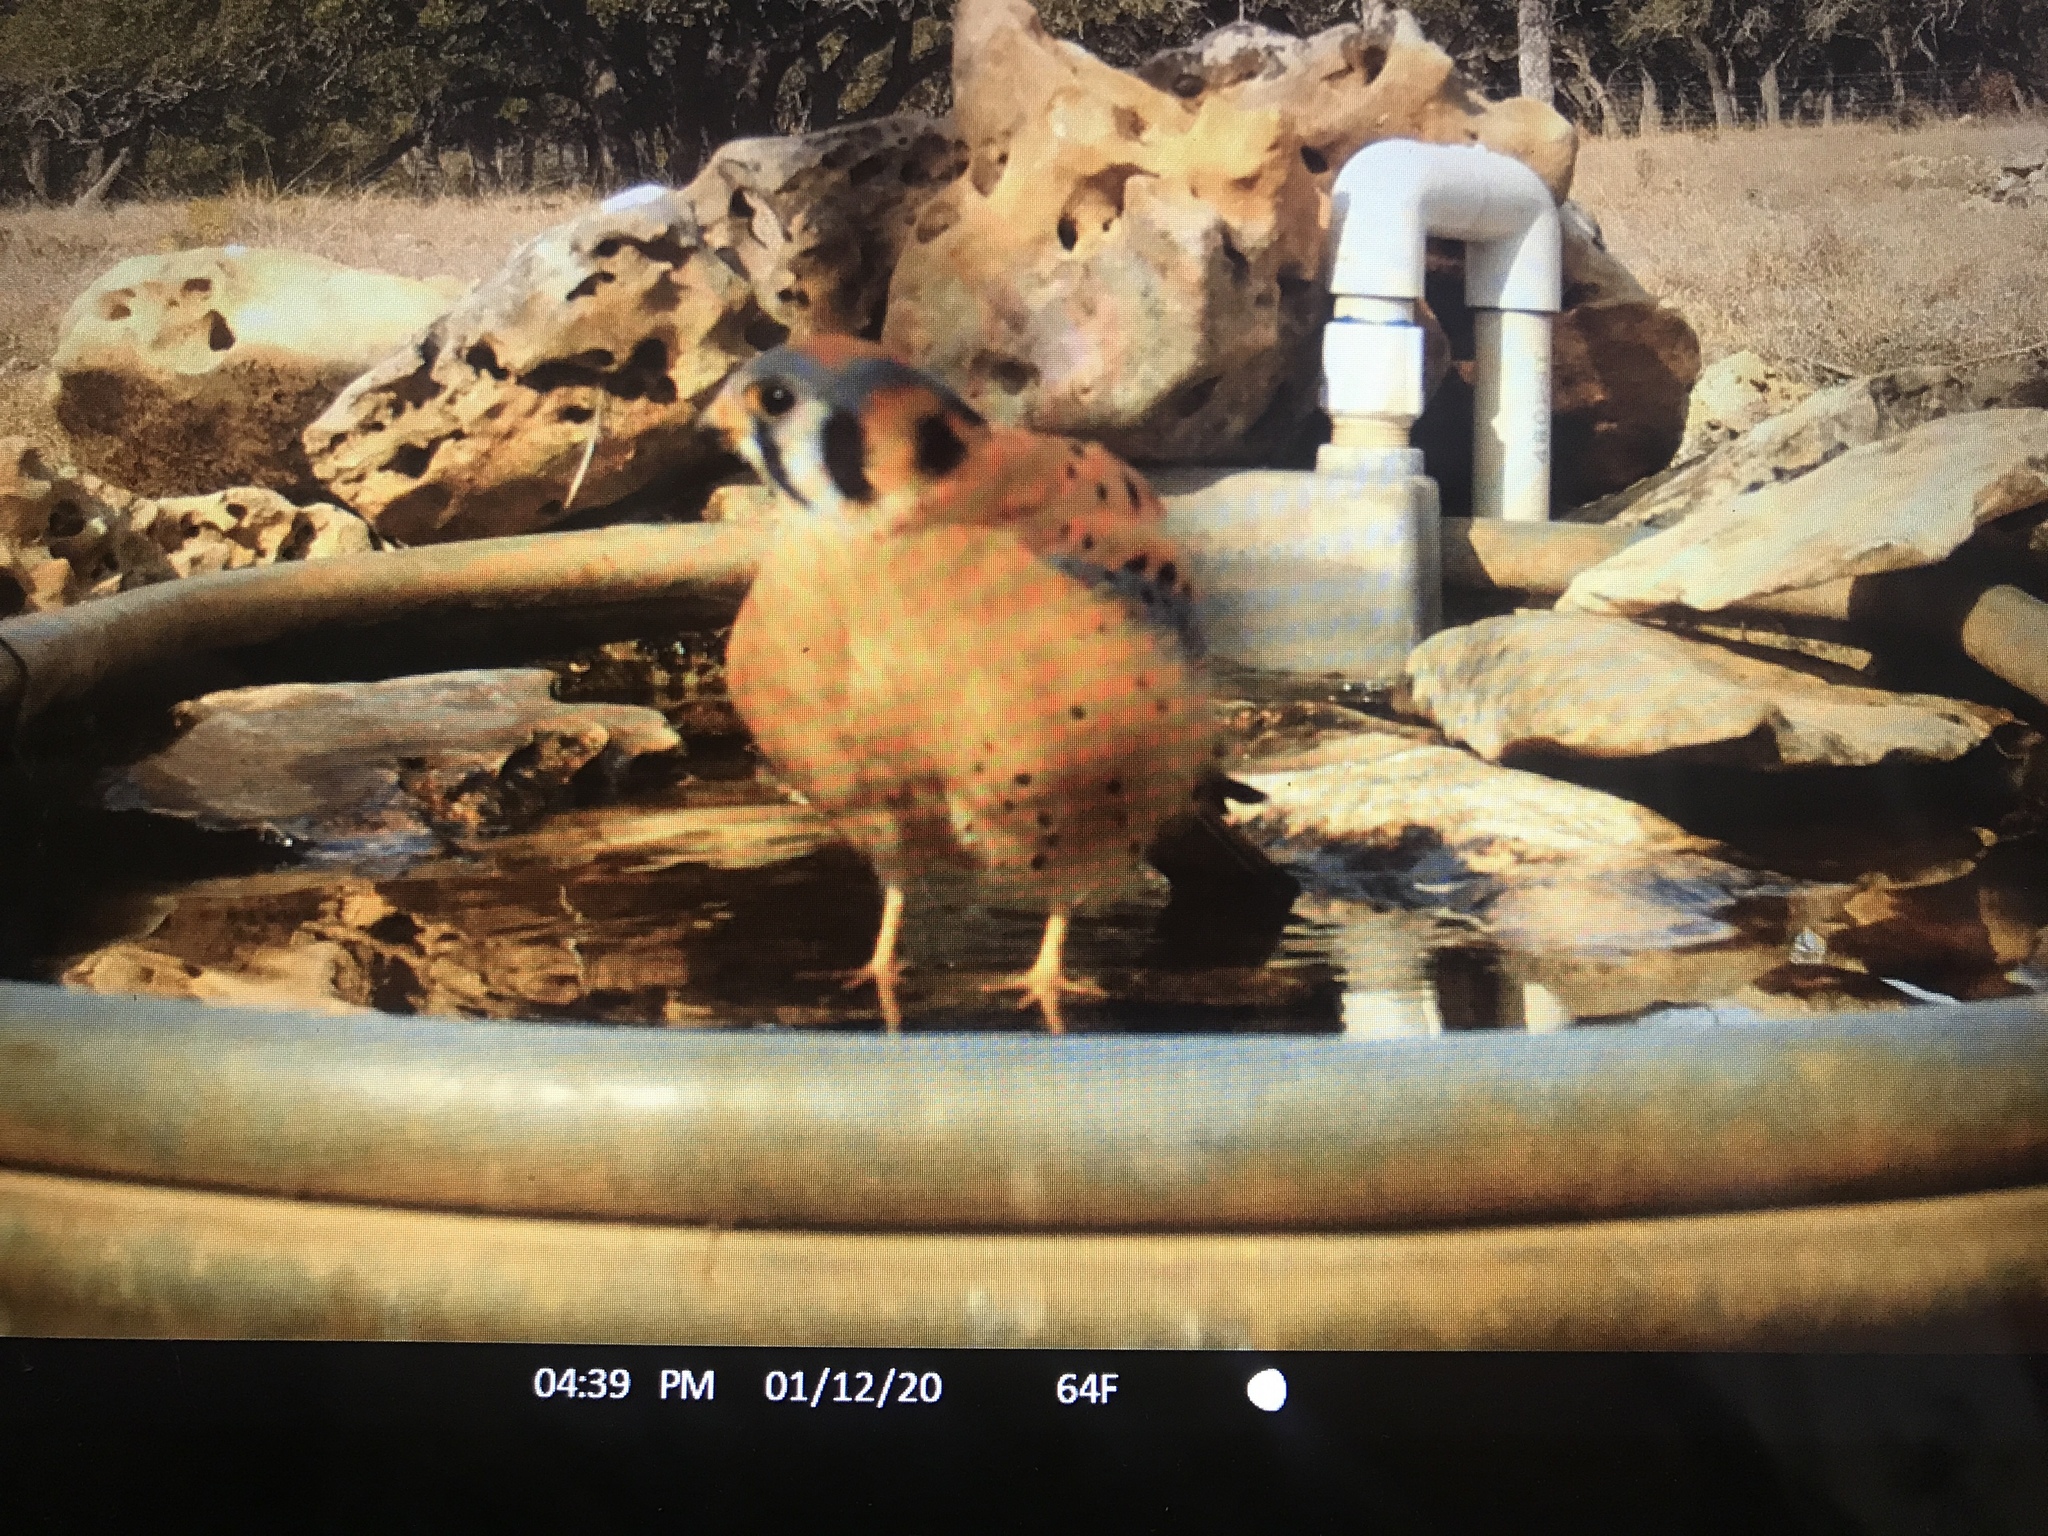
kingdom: Animalia
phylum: Chordata
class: Aves
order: Falconiformes
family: Falconidae
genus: Falco
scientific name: Falco sparverius
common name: American kestrel
